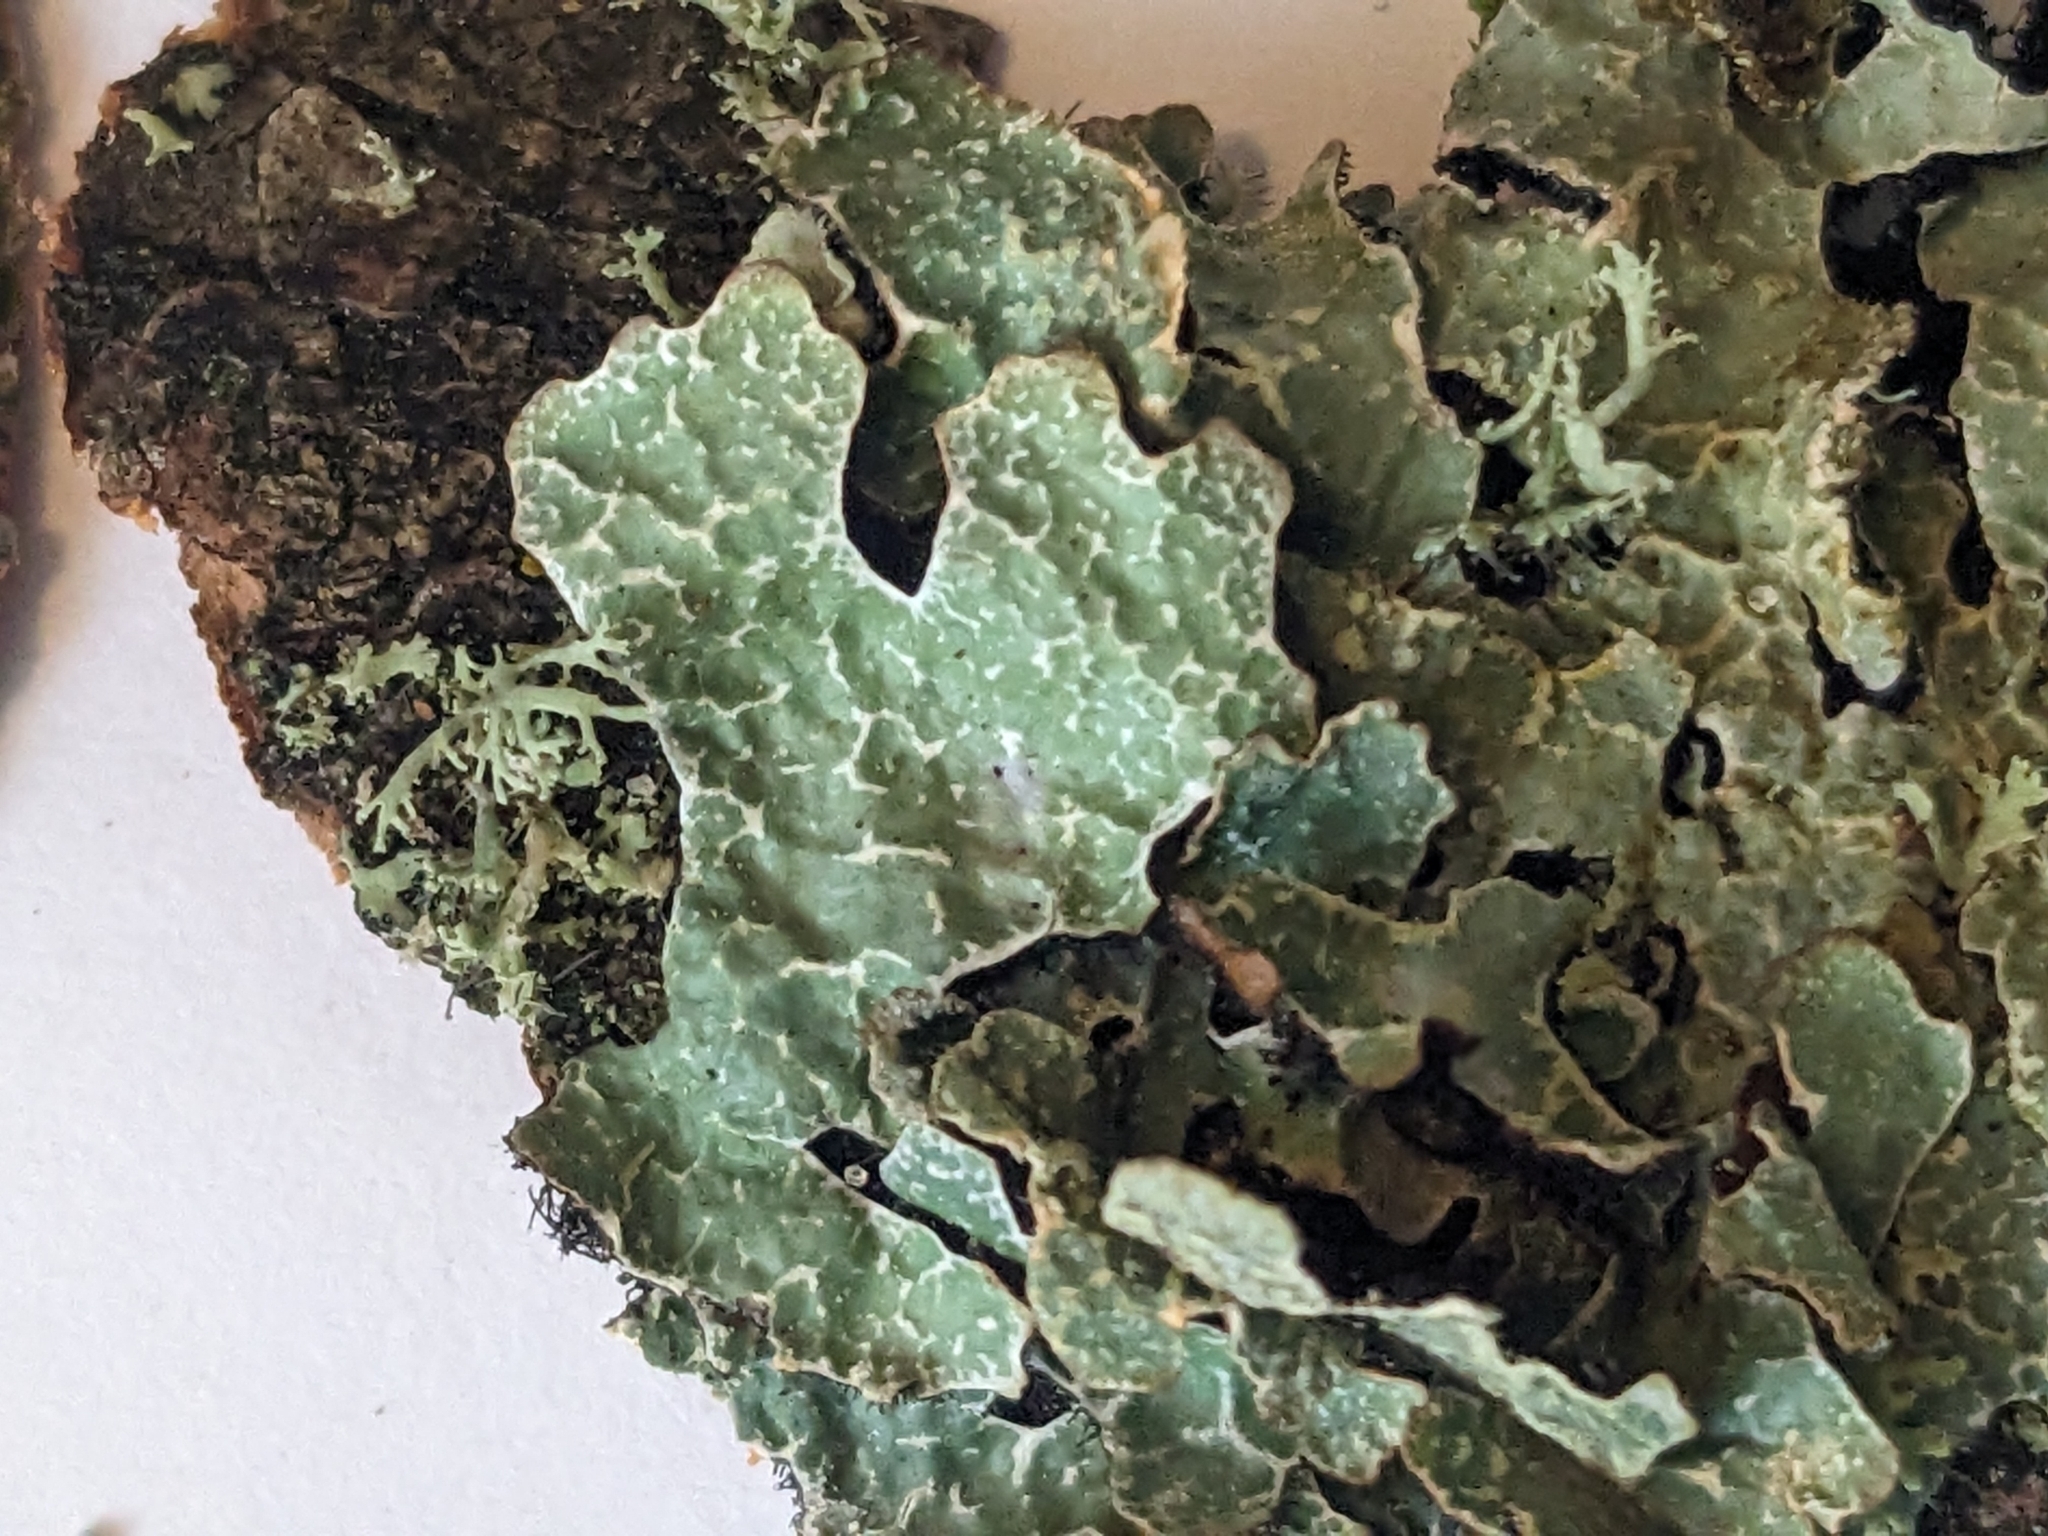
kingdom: Fungi
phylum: Ascomycota
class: Lecanoromycetes
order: Lecanorales
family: Parmeliaceae
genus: Parmelia
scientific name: Parmelia sulcata
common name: Netted shield lichen
